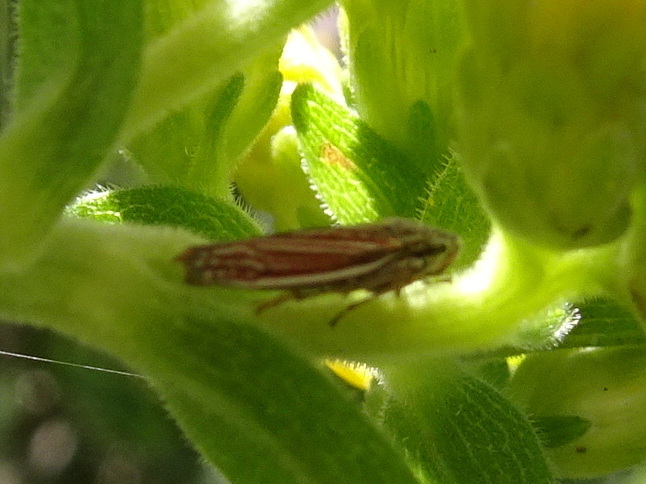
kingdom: Animalia
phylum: Arthropoda
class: Insecta
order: Hemiptera
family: Cicadellidae
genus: Neokolla
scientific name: Neokolla hieroglyphica
